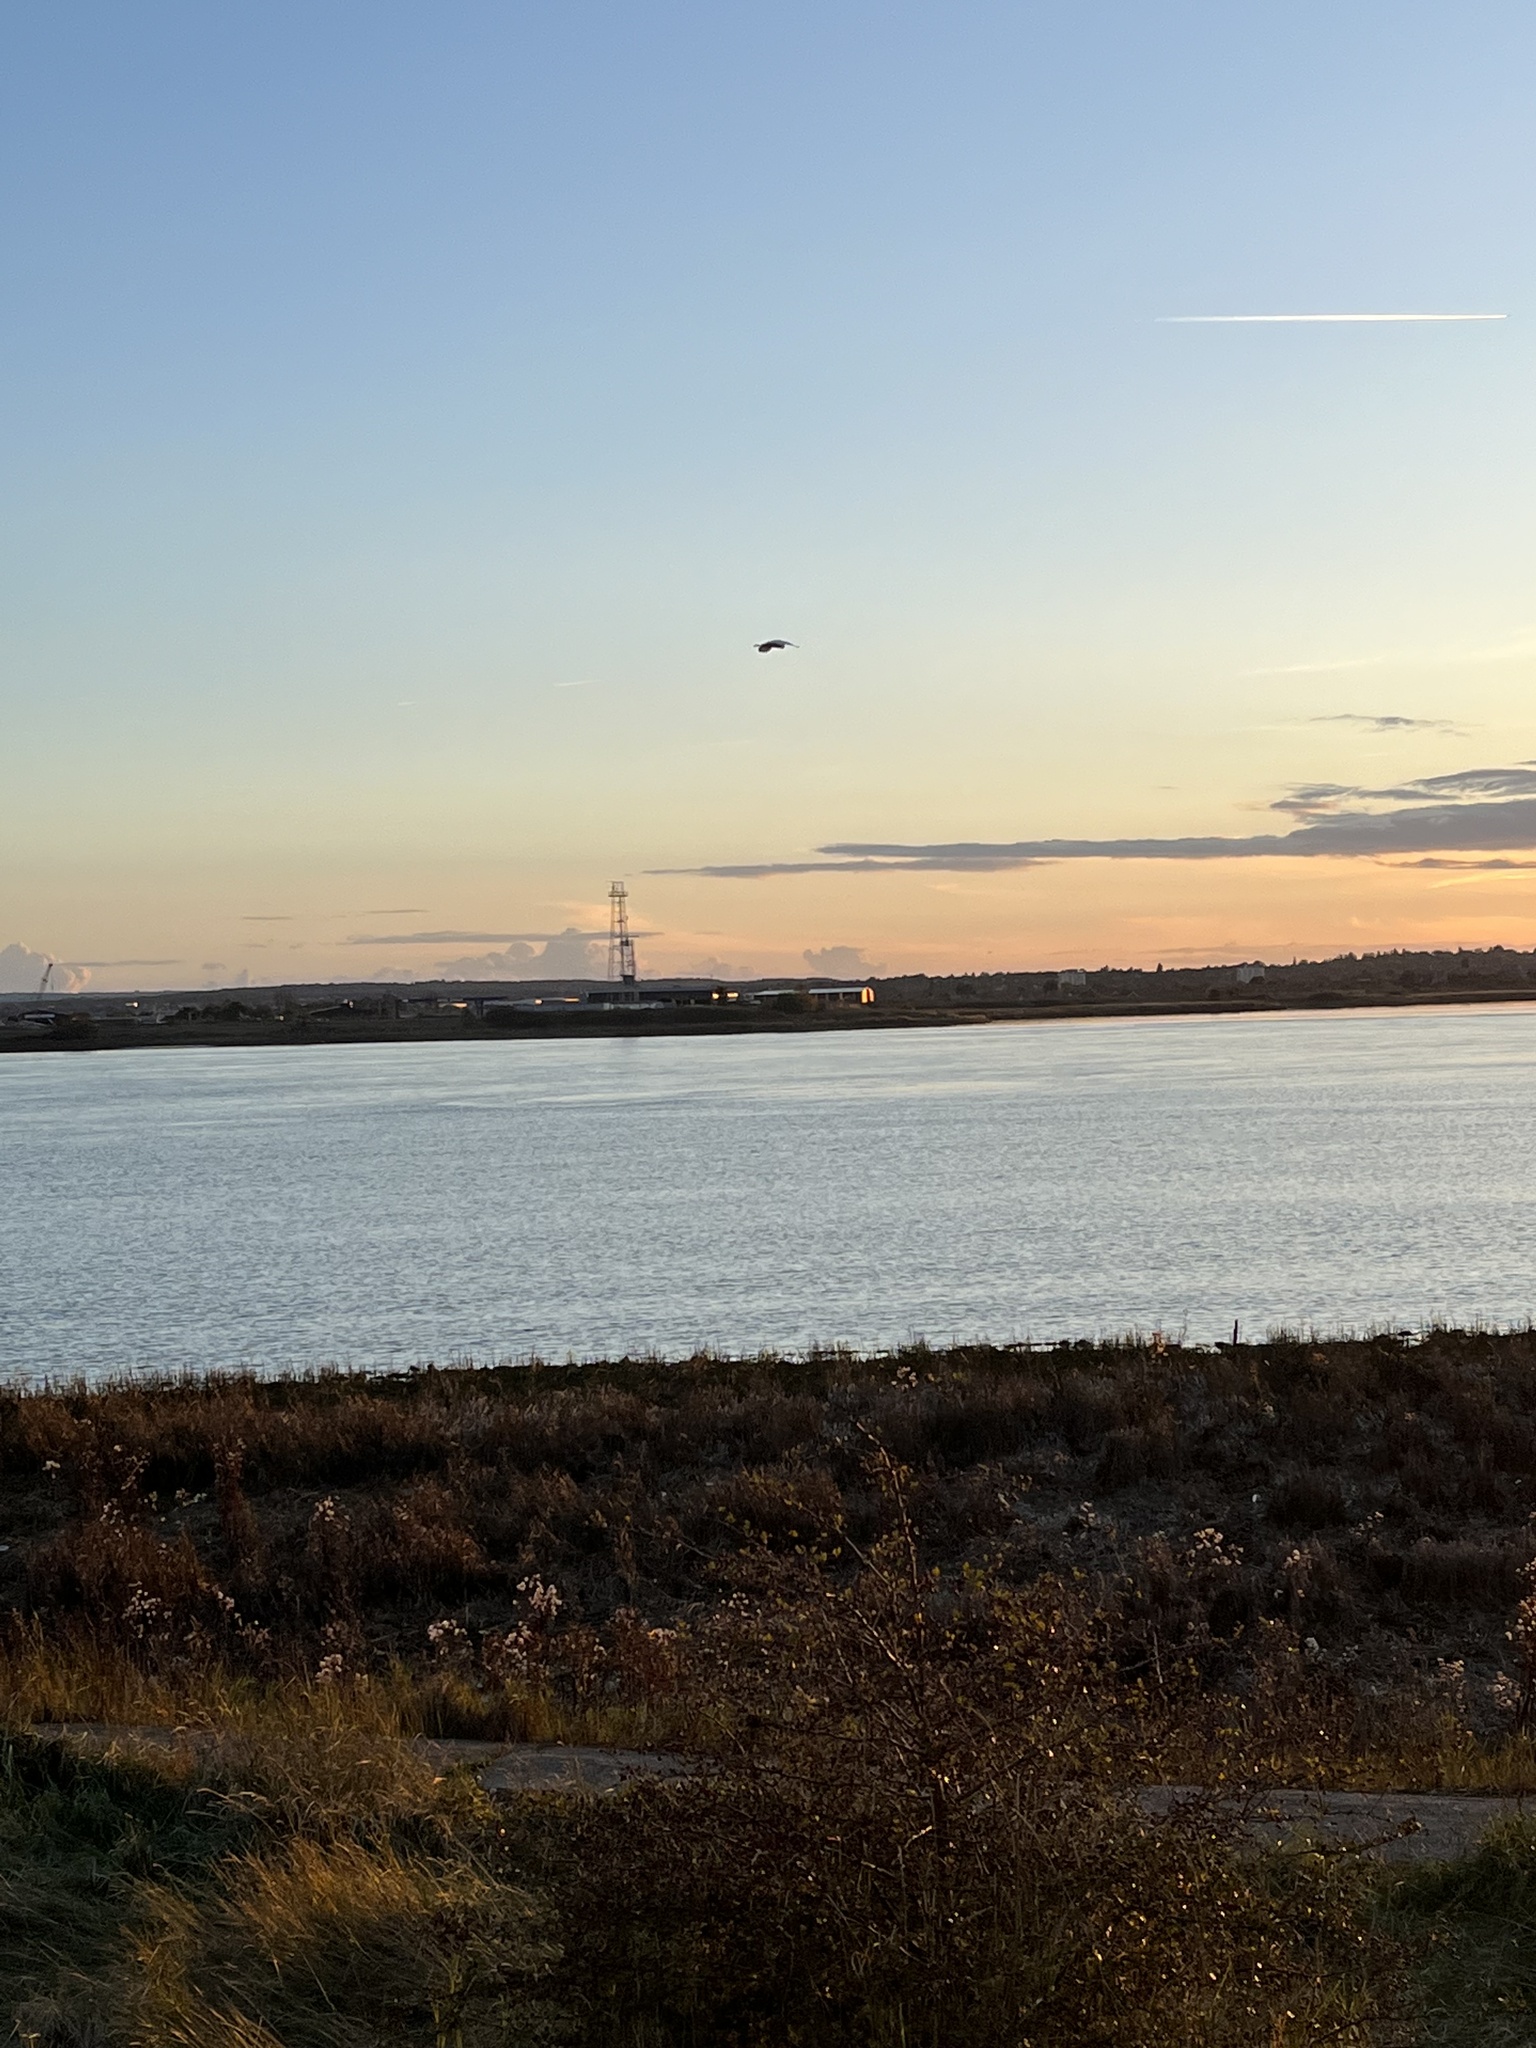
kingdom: Animalia
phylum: Chordata
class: Aves
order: Pelecaniformes
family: Ardeidae
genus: Egretta
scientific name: Egretta garzetta
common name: Little egret
